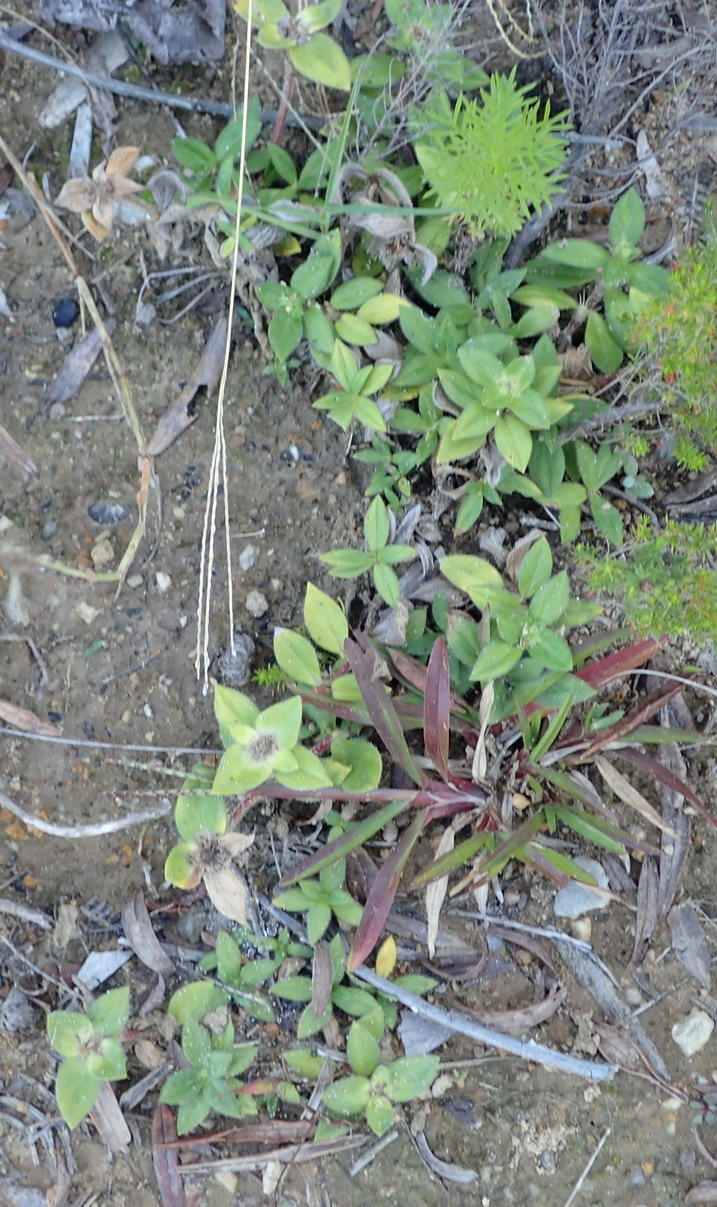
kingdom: Plantae
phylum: Tracheophyta
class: Magnoliopsida
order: Gentianales
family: Rubiaceae
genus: Richardia
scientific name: Richardia brasiliensis
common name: Tropical mexican clover
